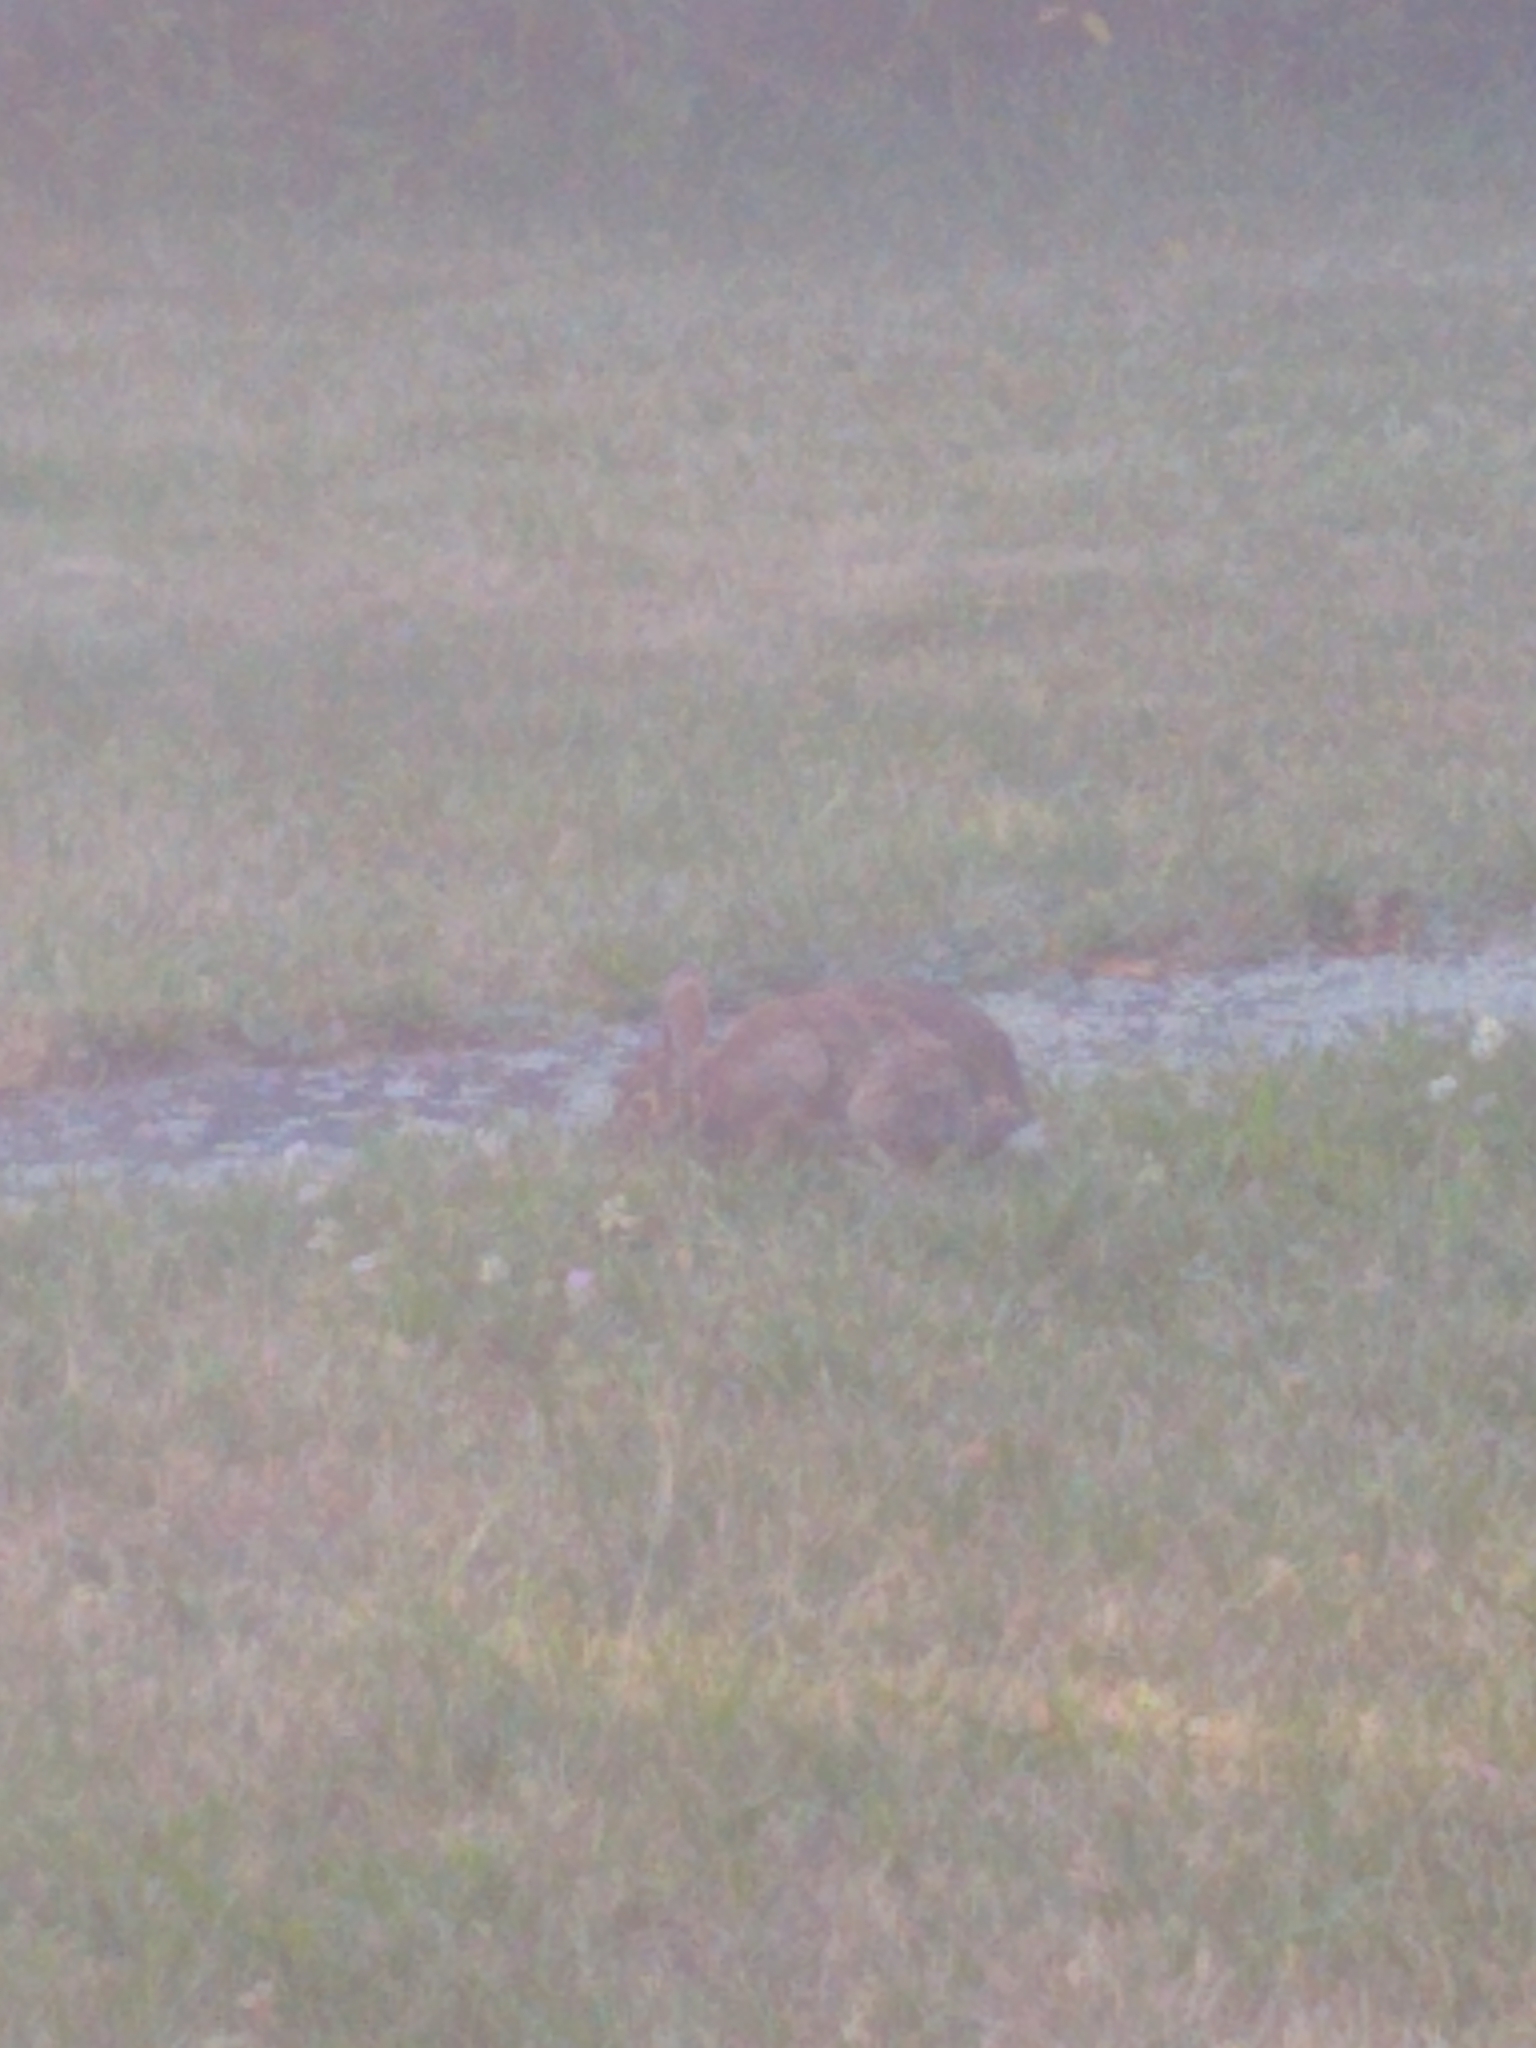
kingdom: Animalia
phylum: Chordata
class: Mammalia
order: Lagomorpha
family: Leporidae
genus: Sylvilagus
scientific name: Sylvilagus floridanus
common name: Eastern cottontail
